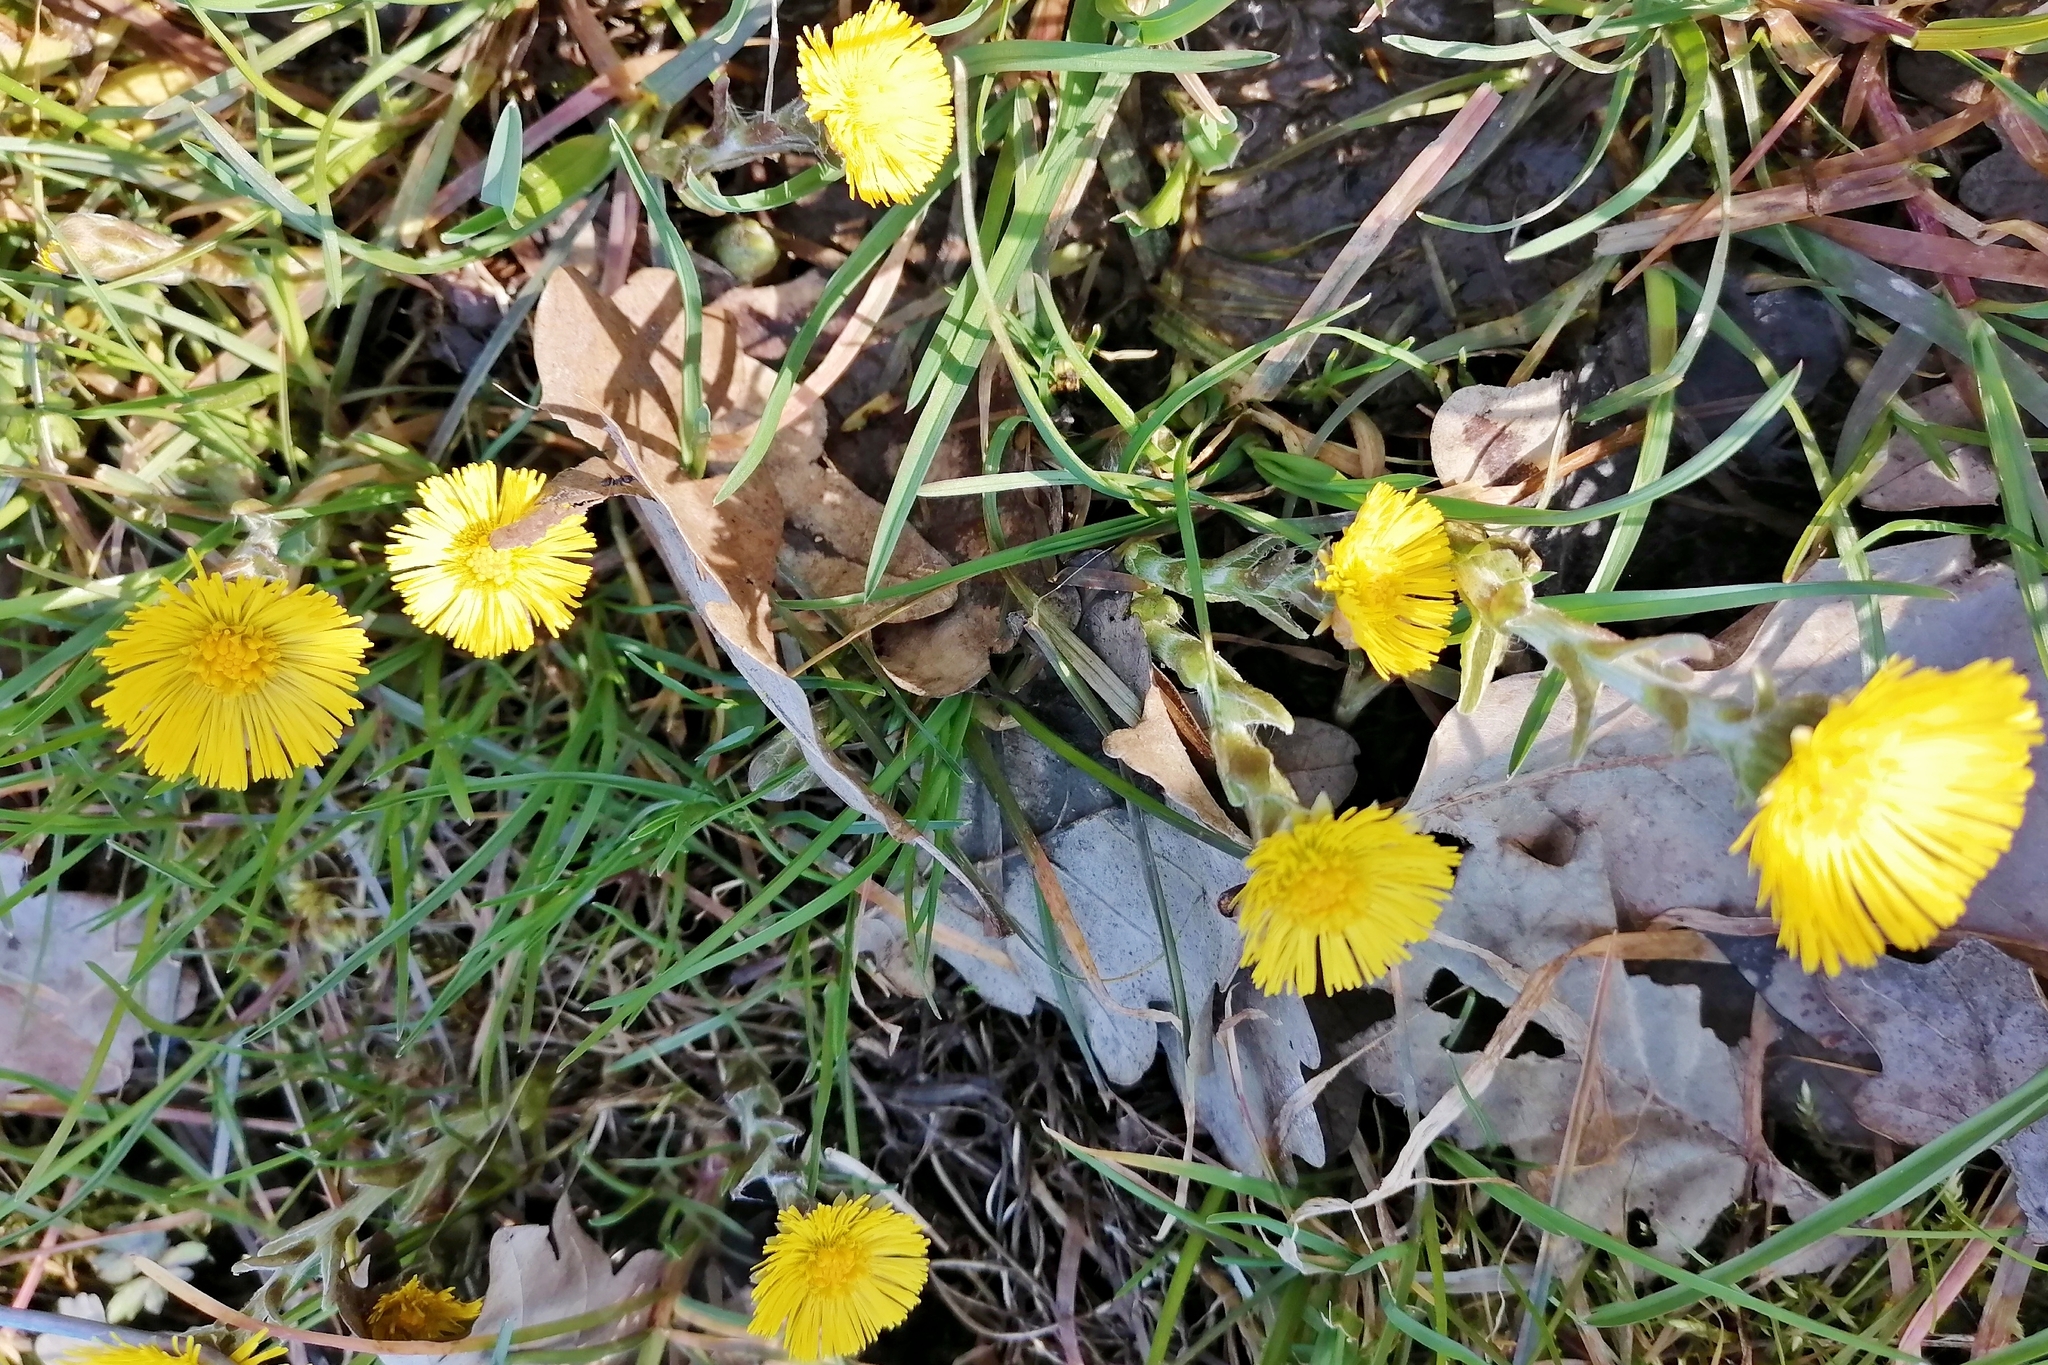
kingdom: Plantae
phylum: Tracheophyta
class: Magnoliopsida
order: Asterales
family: Asteraceae
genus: Tussilago
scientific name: Tussilago farfara
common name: Coltsfoot
